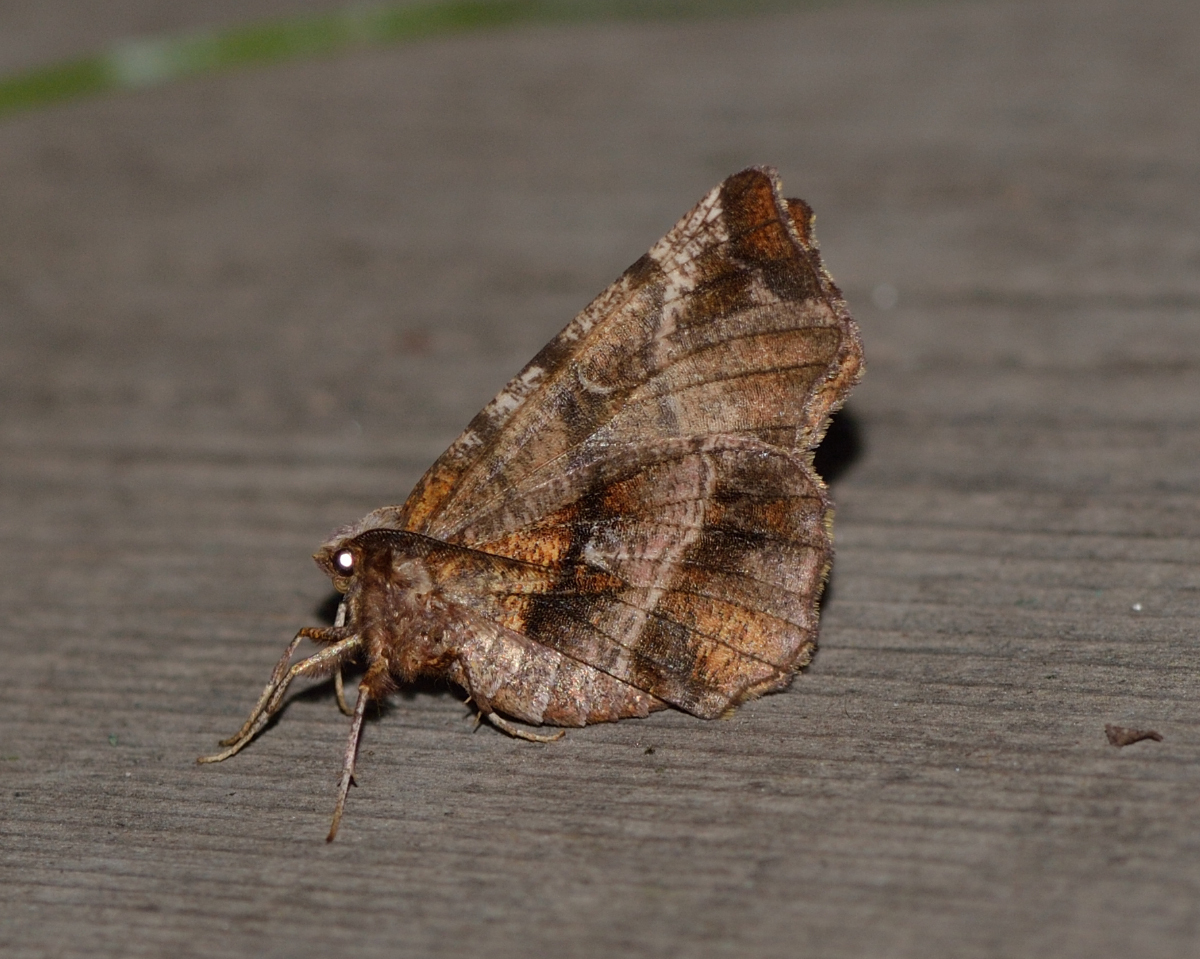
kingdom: Animalia
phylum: Arthropoda
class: Insecta
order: Lepidoptera
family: Geometridae
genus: Selenia
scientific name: Selenia dentaria
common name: Early thorn
